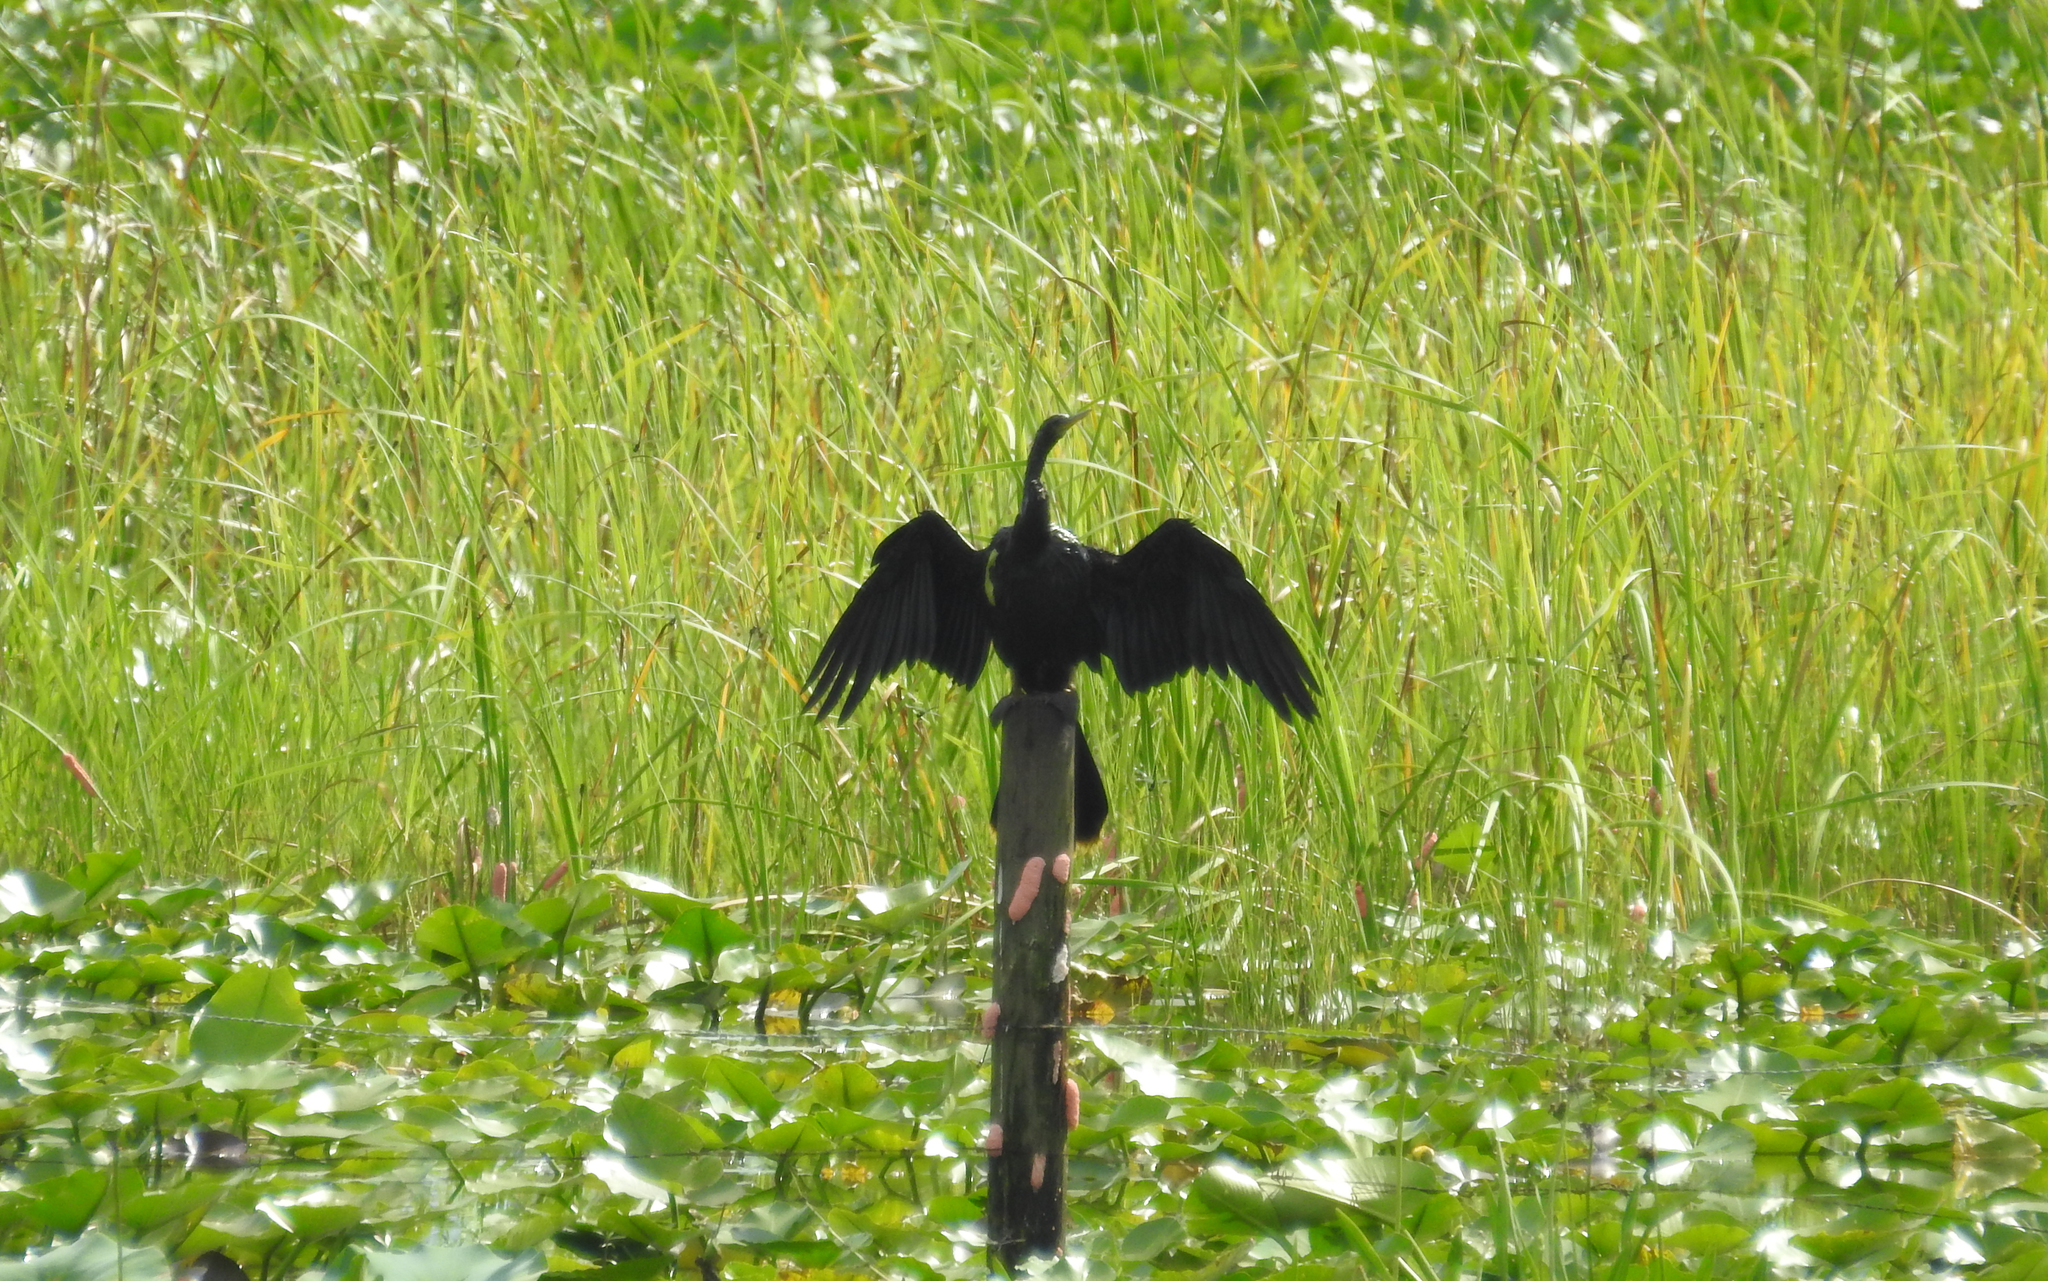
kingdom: Animalia
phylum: Chordata
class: Aves
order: Suliformes
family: Anhingidae
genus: Anhinga
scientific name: Anhinga anhinga
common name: Anhinga
